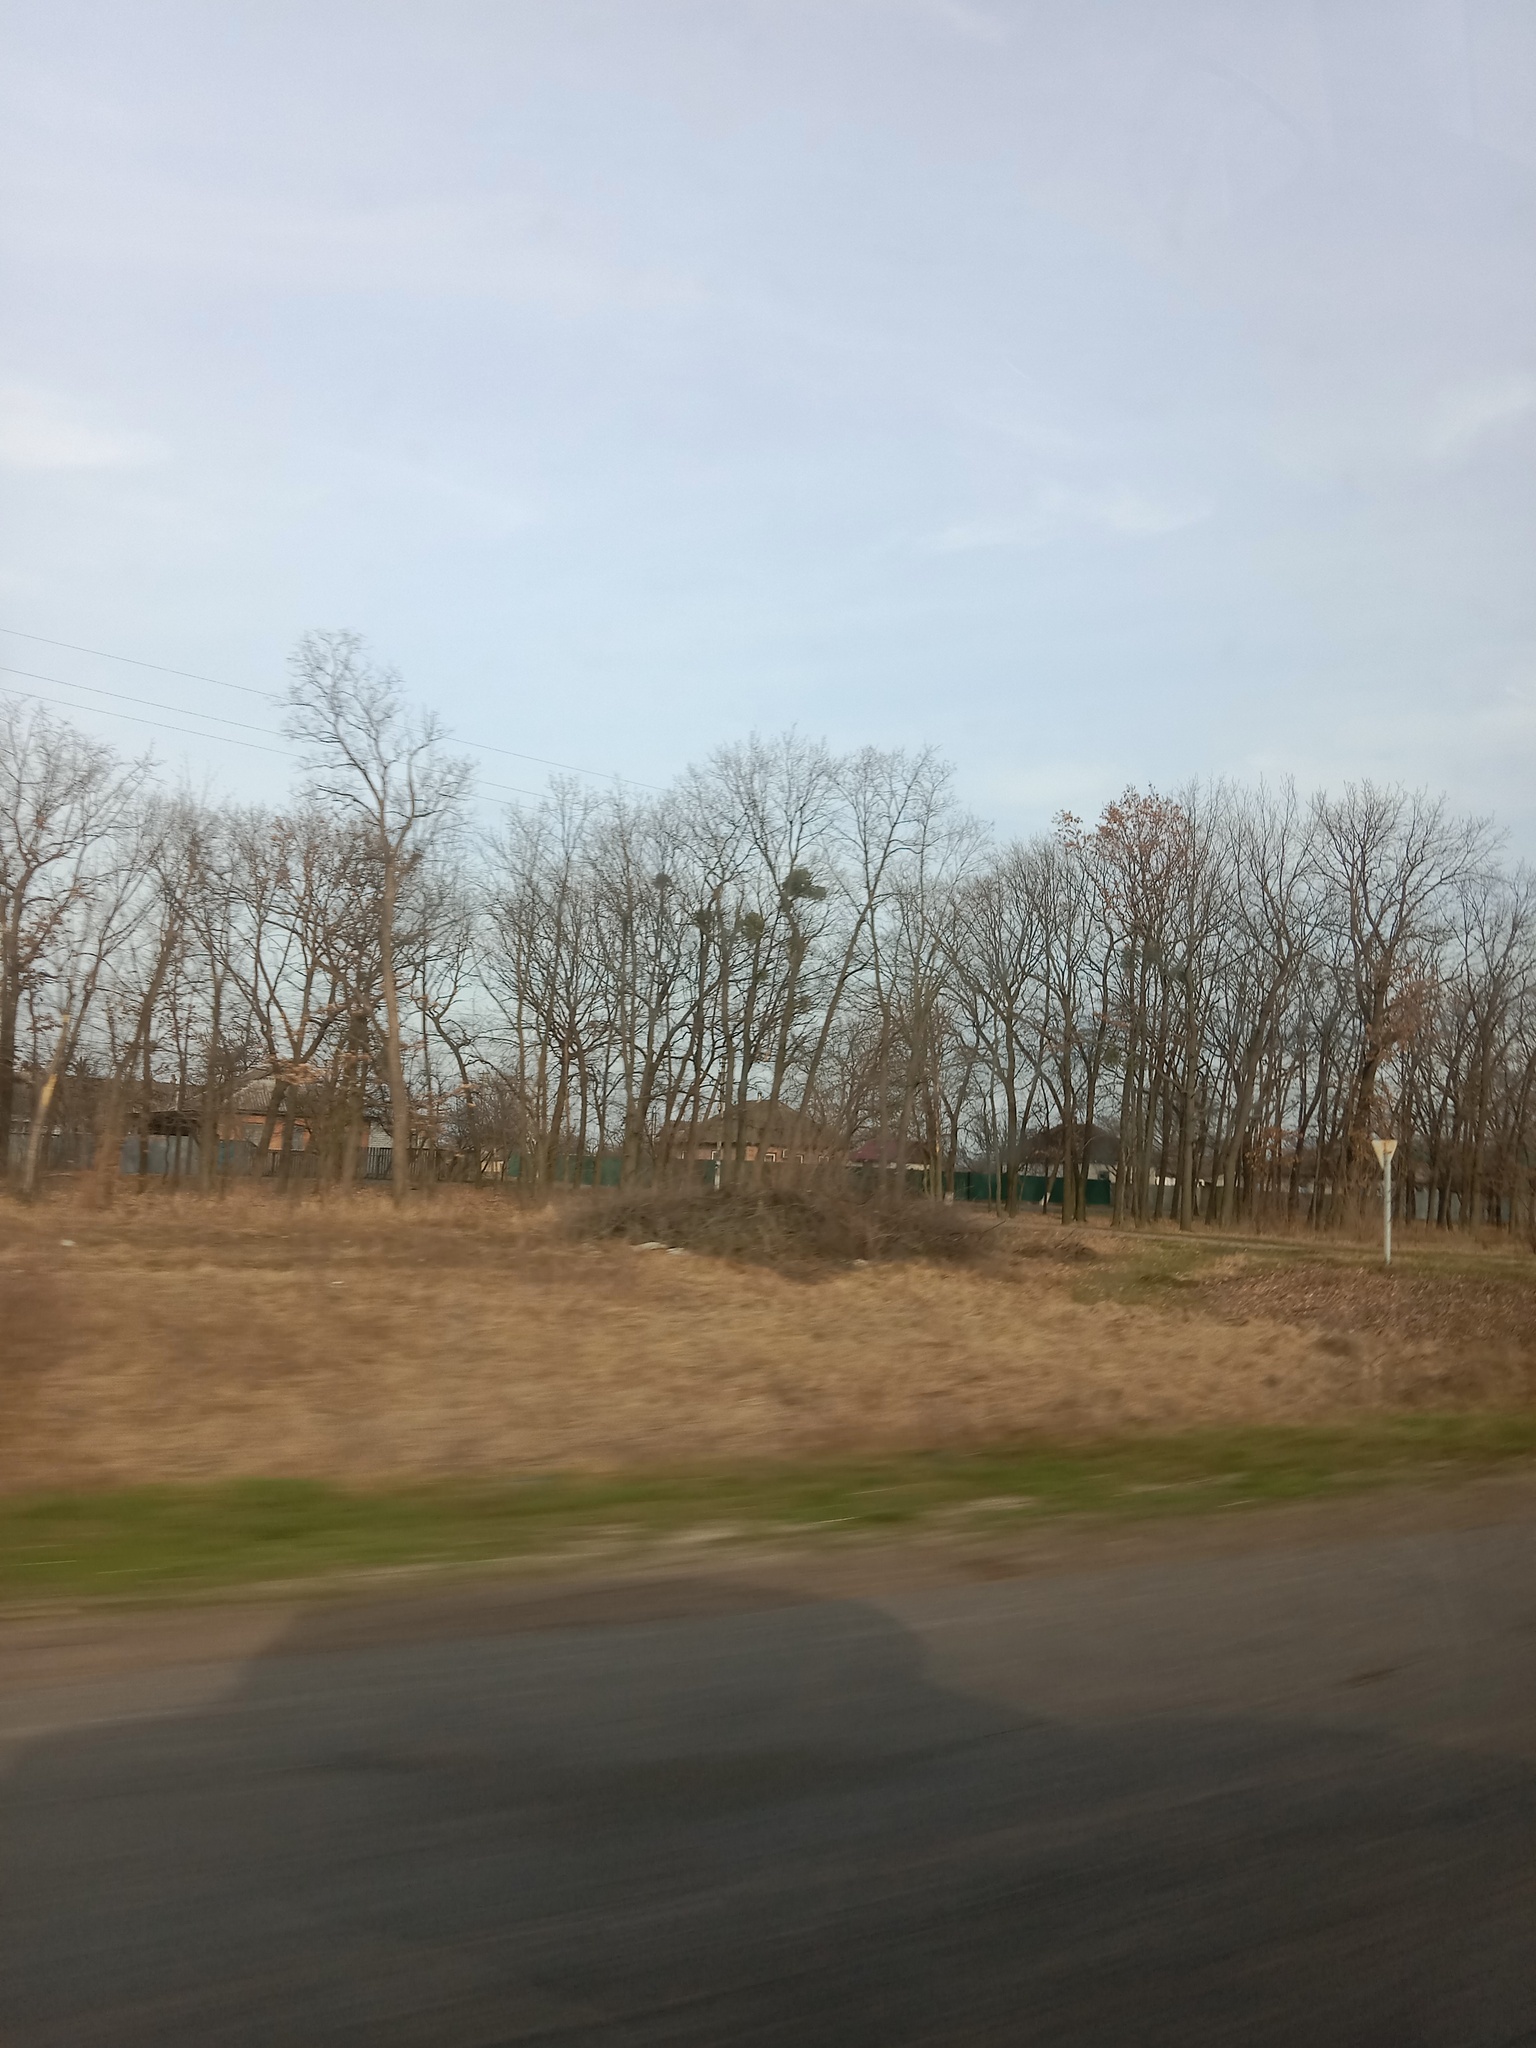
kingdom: Plantae
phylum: Tracheophyta
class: Magnoliopsida
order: Santalales
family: Viscaceae
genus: Viscum
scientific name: Viscum album
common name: Mistletoe
